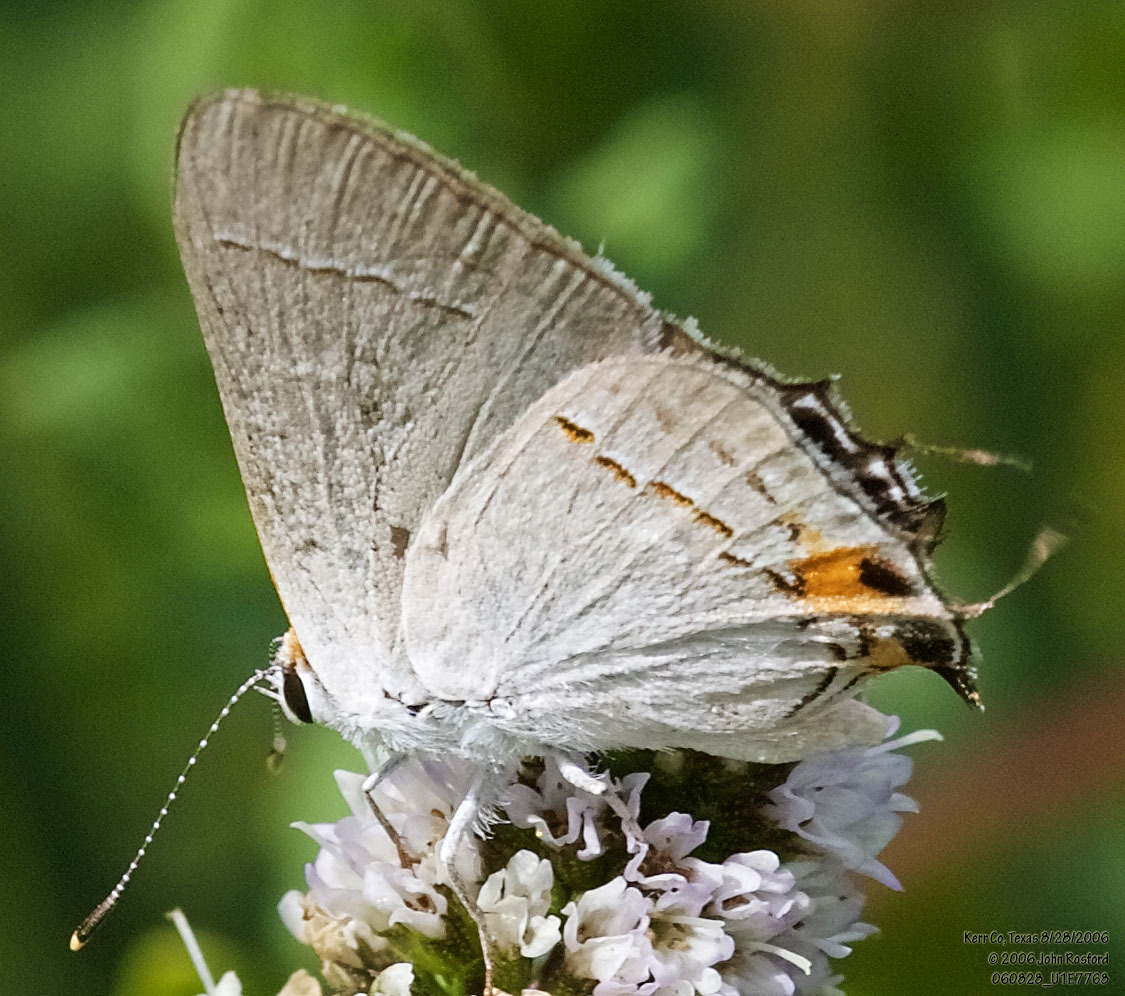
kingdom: Animalia
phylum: Arthropoda
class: Insecta
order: Lepidoptera
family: Lycaenidae
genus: Strymon
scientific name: Strymon melinus
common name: Gray hairstreak
